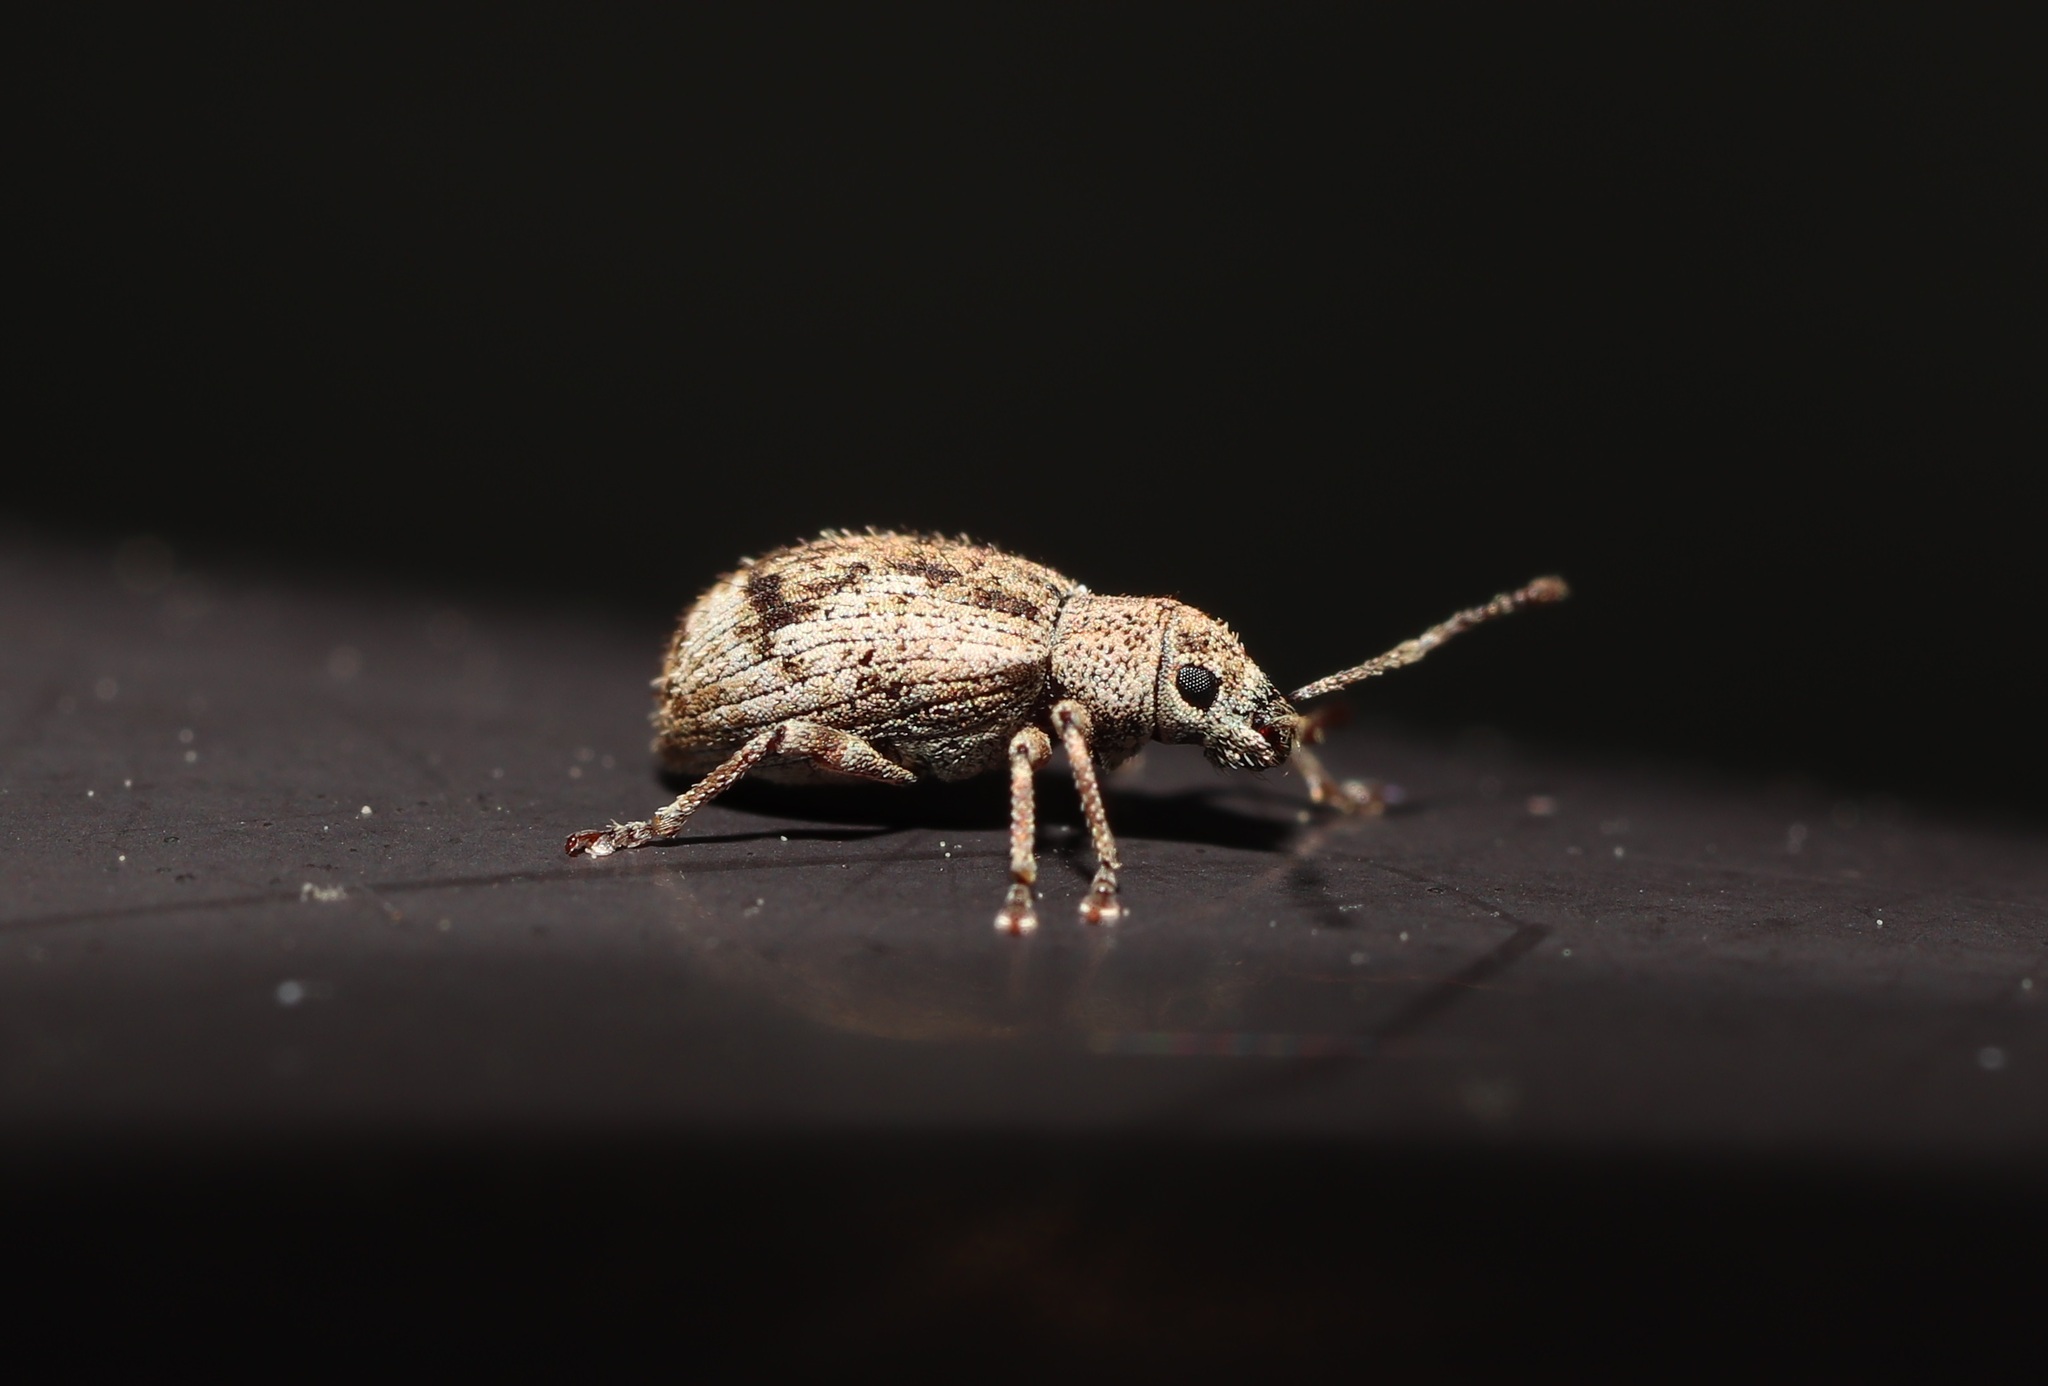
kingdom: Animalia
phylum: Arthropoda
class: Insecta
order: Coleoptera
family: Curculionidae
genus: Pseudoedophrys
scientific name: Pseudoedophrys hilleri
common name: Weevil
